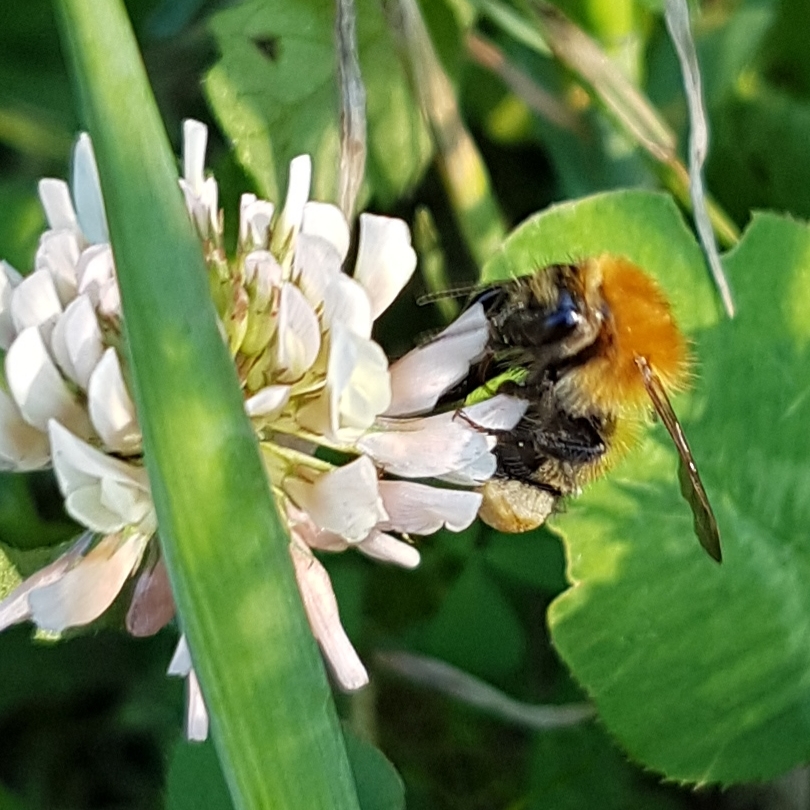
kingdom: Animalia
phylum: Arthropoda
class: Insecta
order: Hymenoptera
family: Apidae
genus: Bombus
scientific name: Bombus pascuorum
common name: Common carder bee
